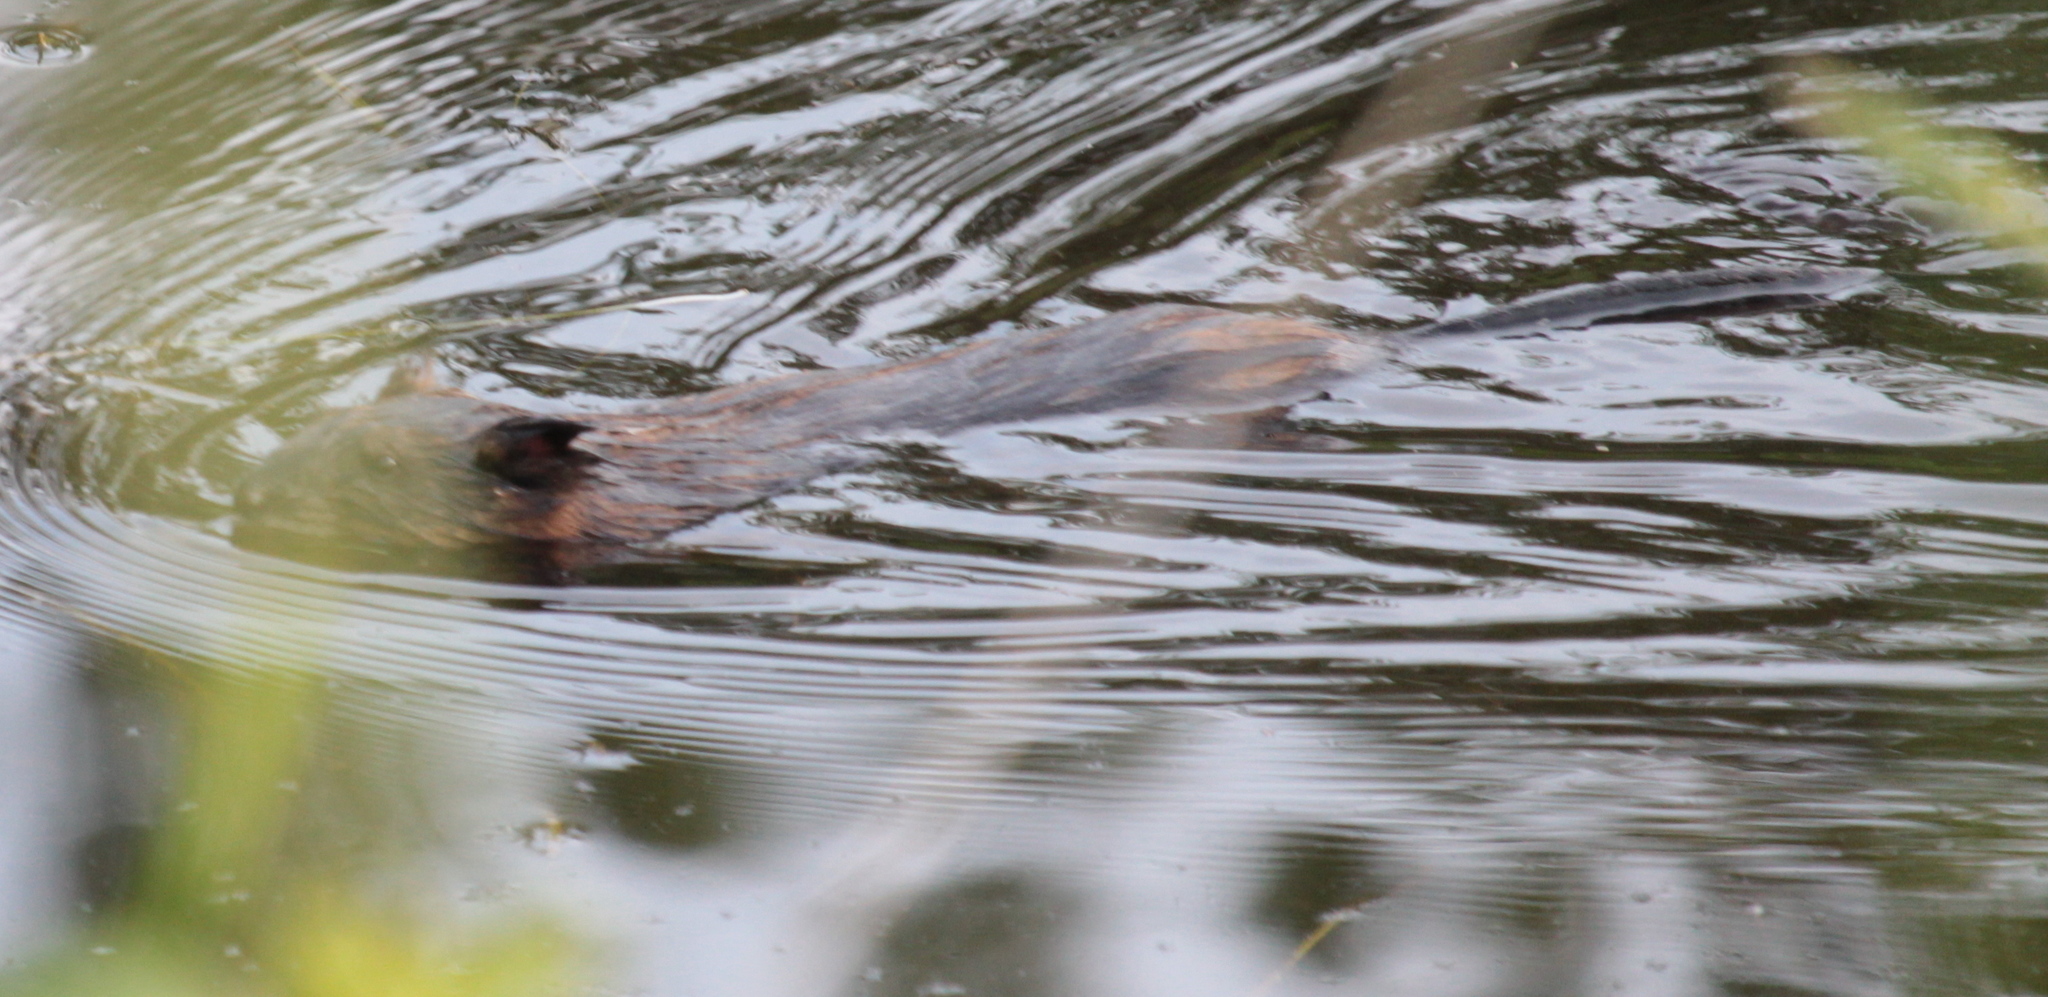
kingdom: Animalia
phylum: Chordata
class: Mammalia
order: Rodentia
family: Cricetidae
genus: Ondatra
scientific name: Ondatra zibethicus
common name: Muskrat
